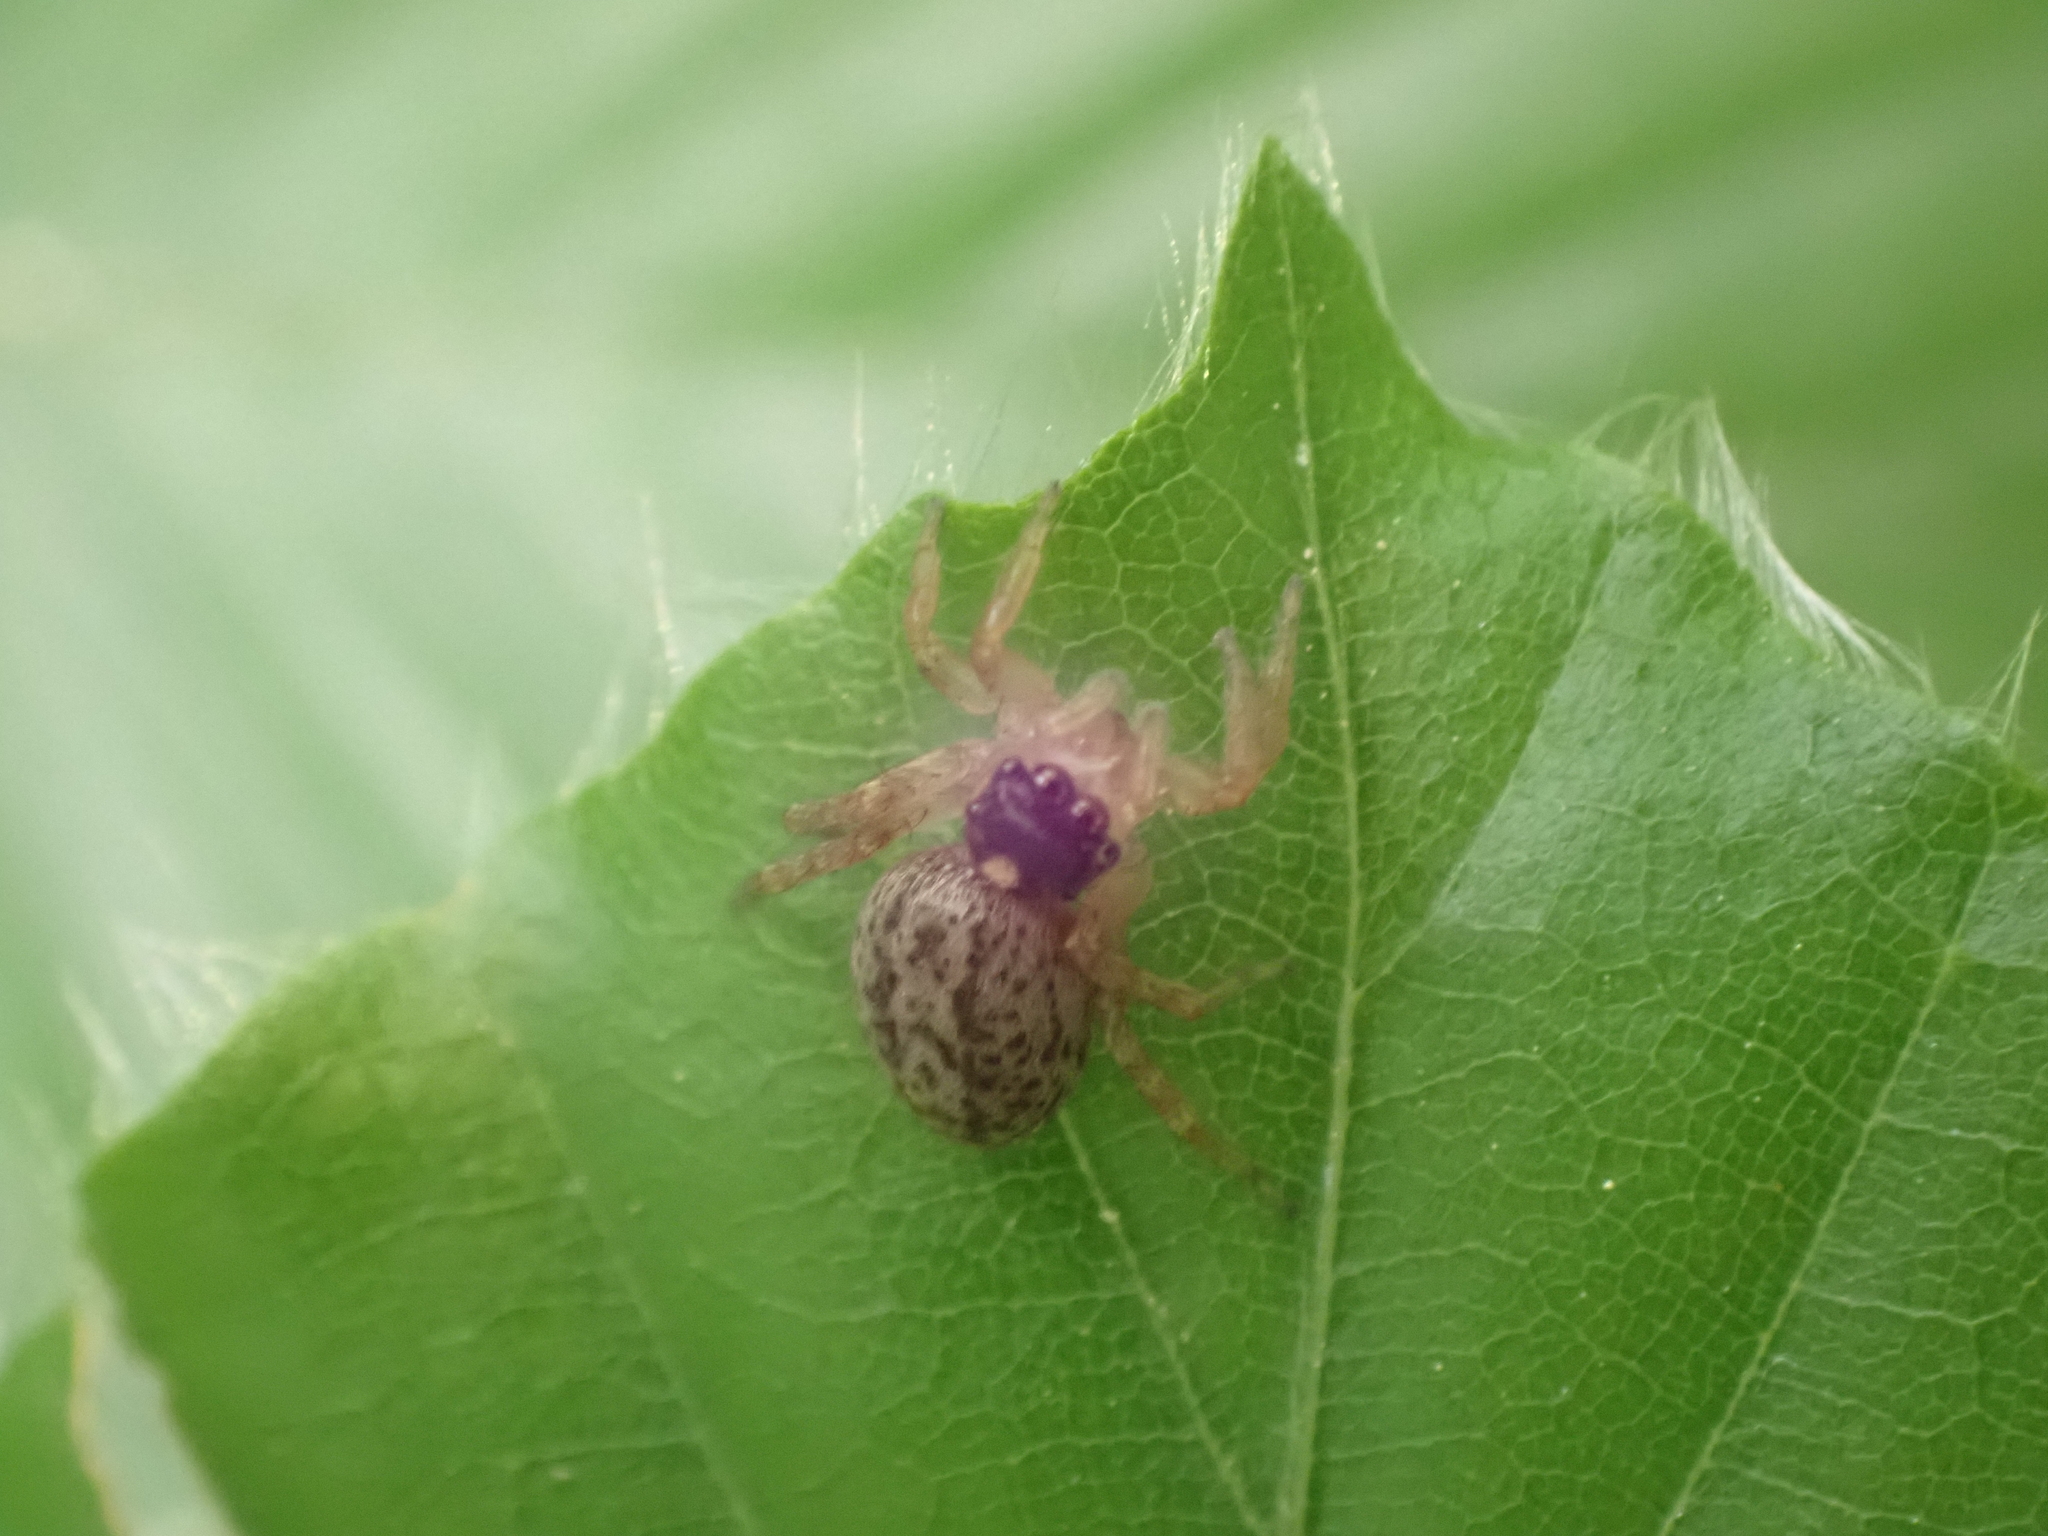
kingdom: Animalia
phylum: Arthropoda
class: Arachnida
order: Araneae
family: Salticidae
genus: Saitis
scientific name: Saitis barbipes
